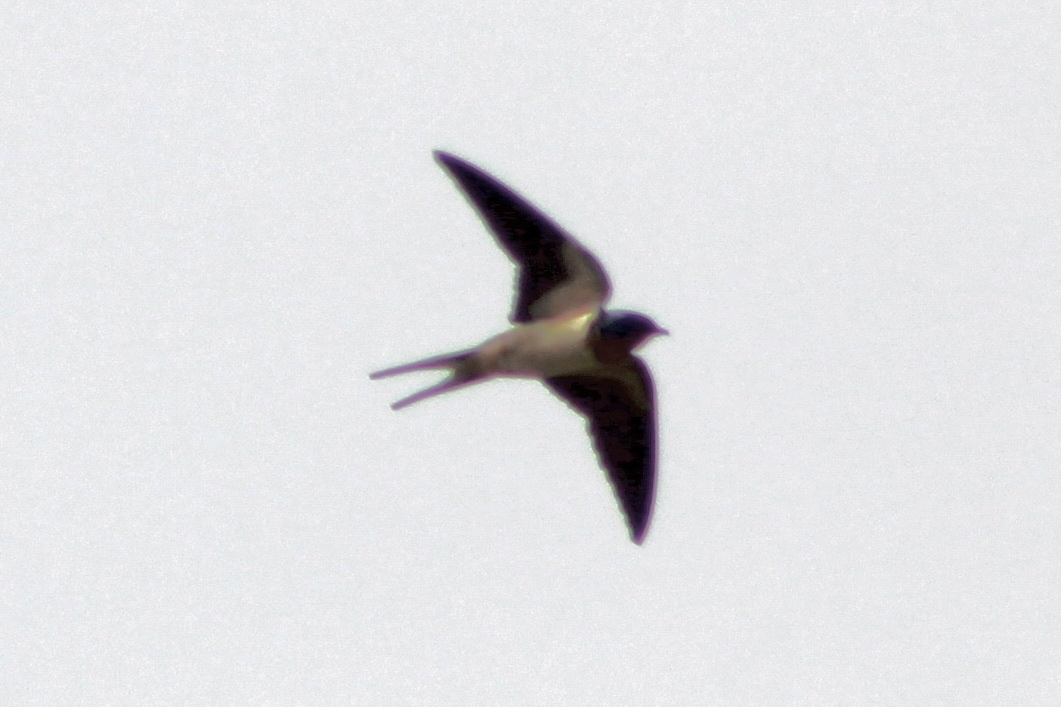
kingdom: Animalia
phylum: Chordata
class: Aves
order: Passeriformes
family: Hirundinidae
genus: Hirundo
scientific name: Hirundo rustica
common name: Barn swallow
